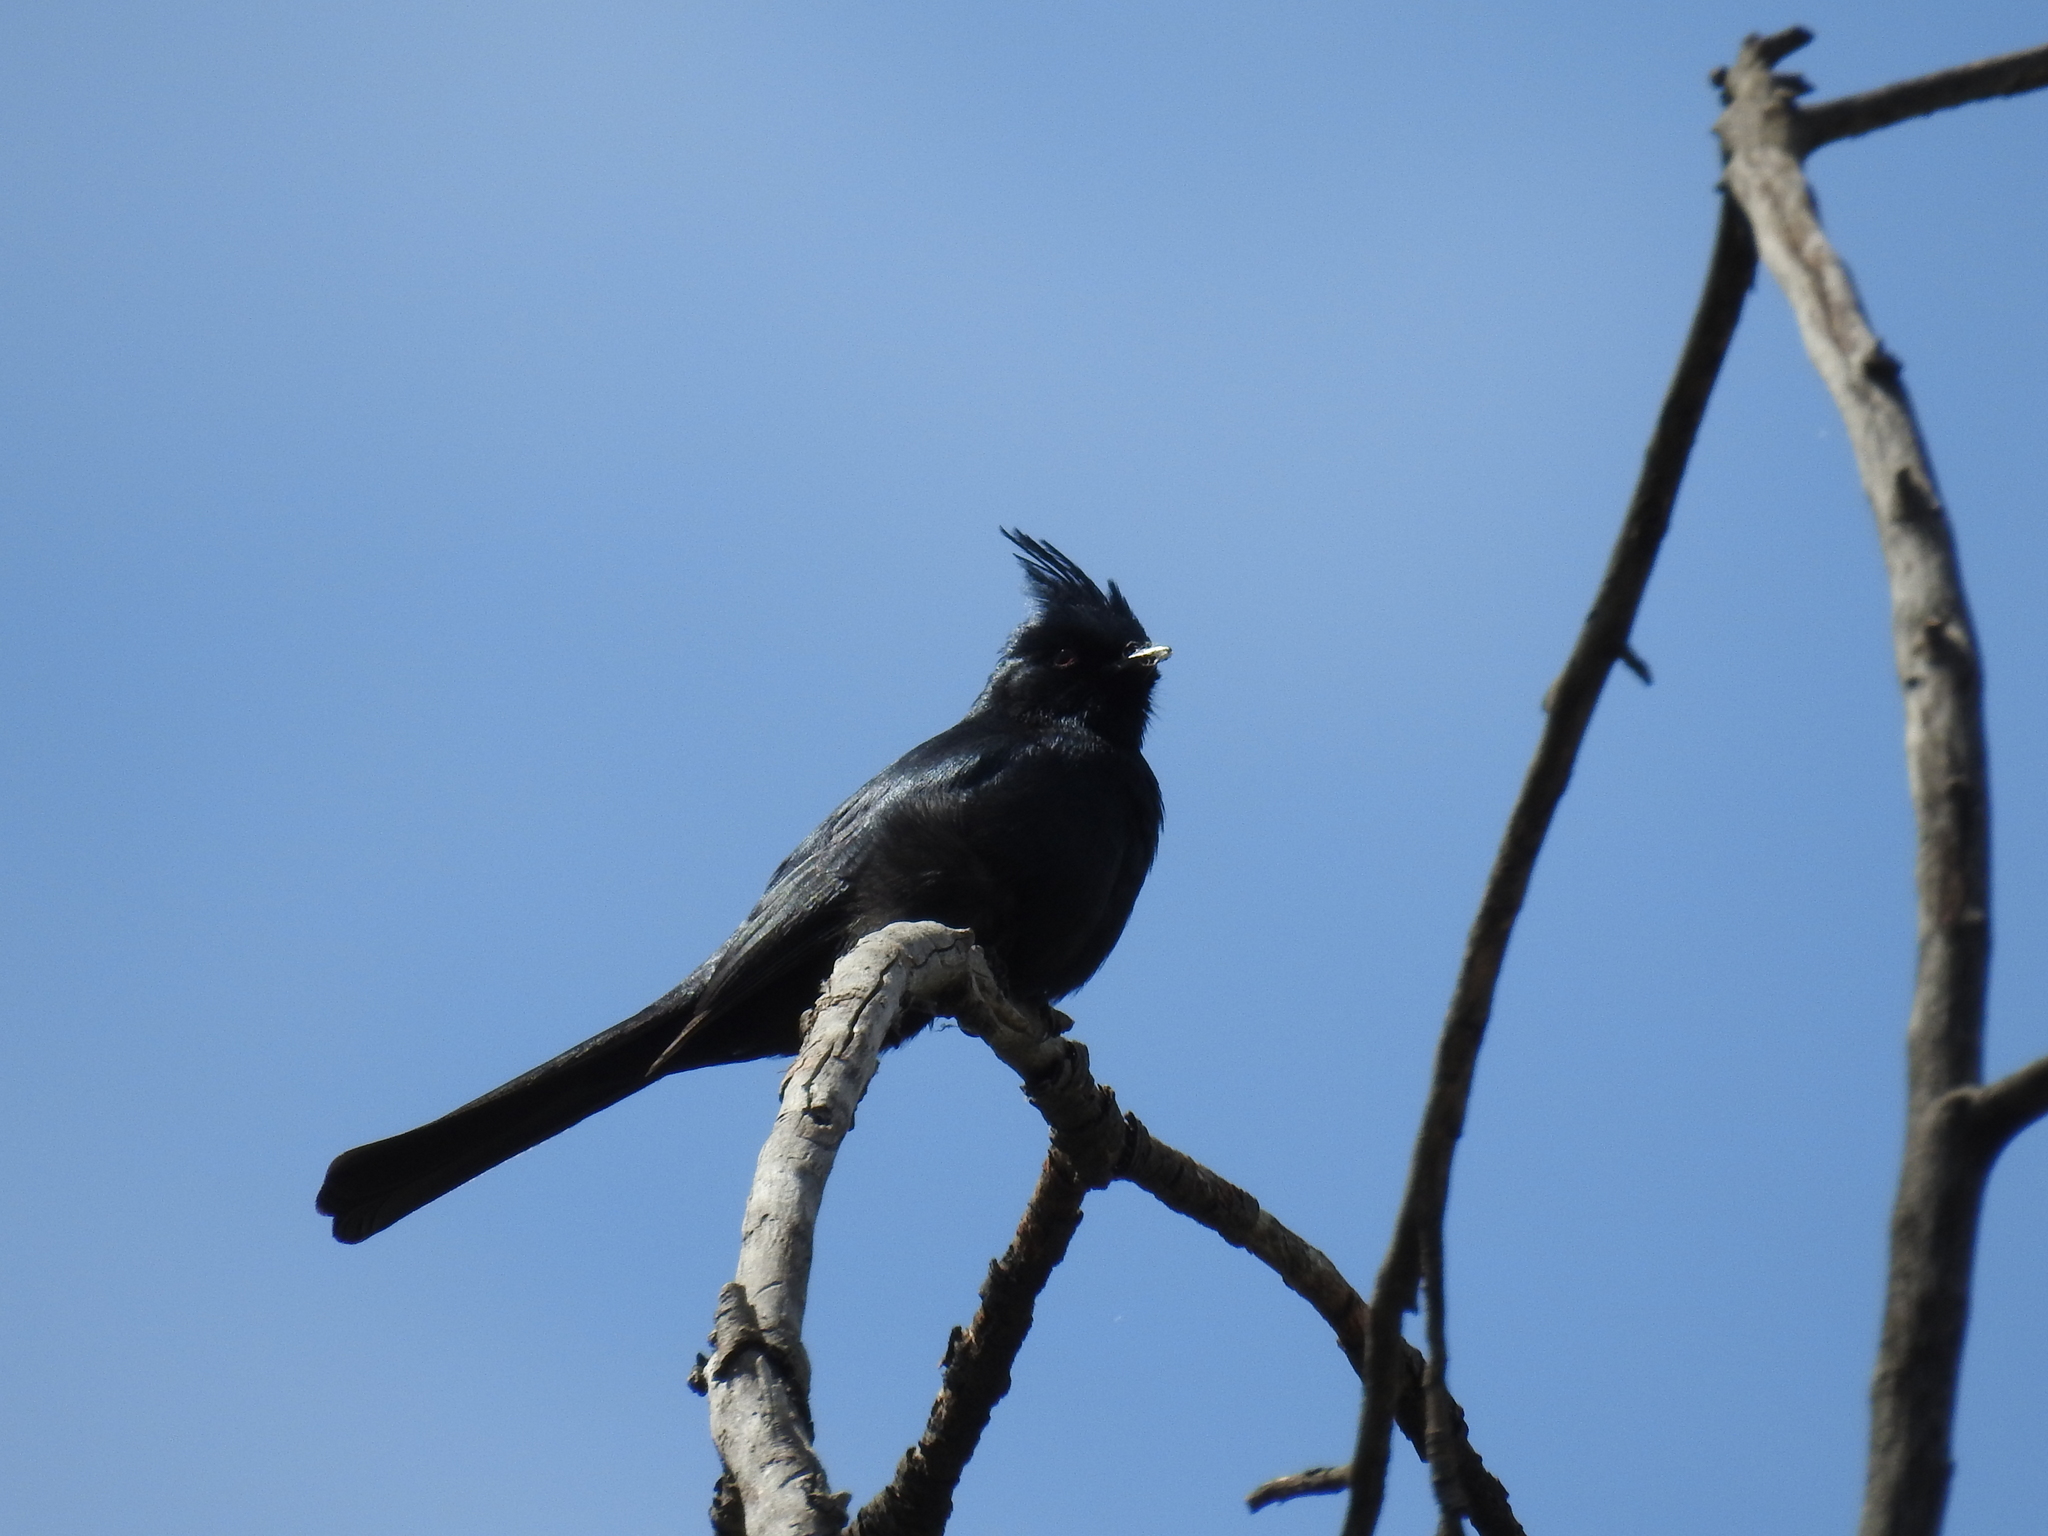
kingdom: Animalia
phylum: Chordata
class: Aves
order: Passeriformes
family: Ptilogonatidae
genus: Phainopepla
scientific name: Phainopepla nitens
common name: Phainopepla
